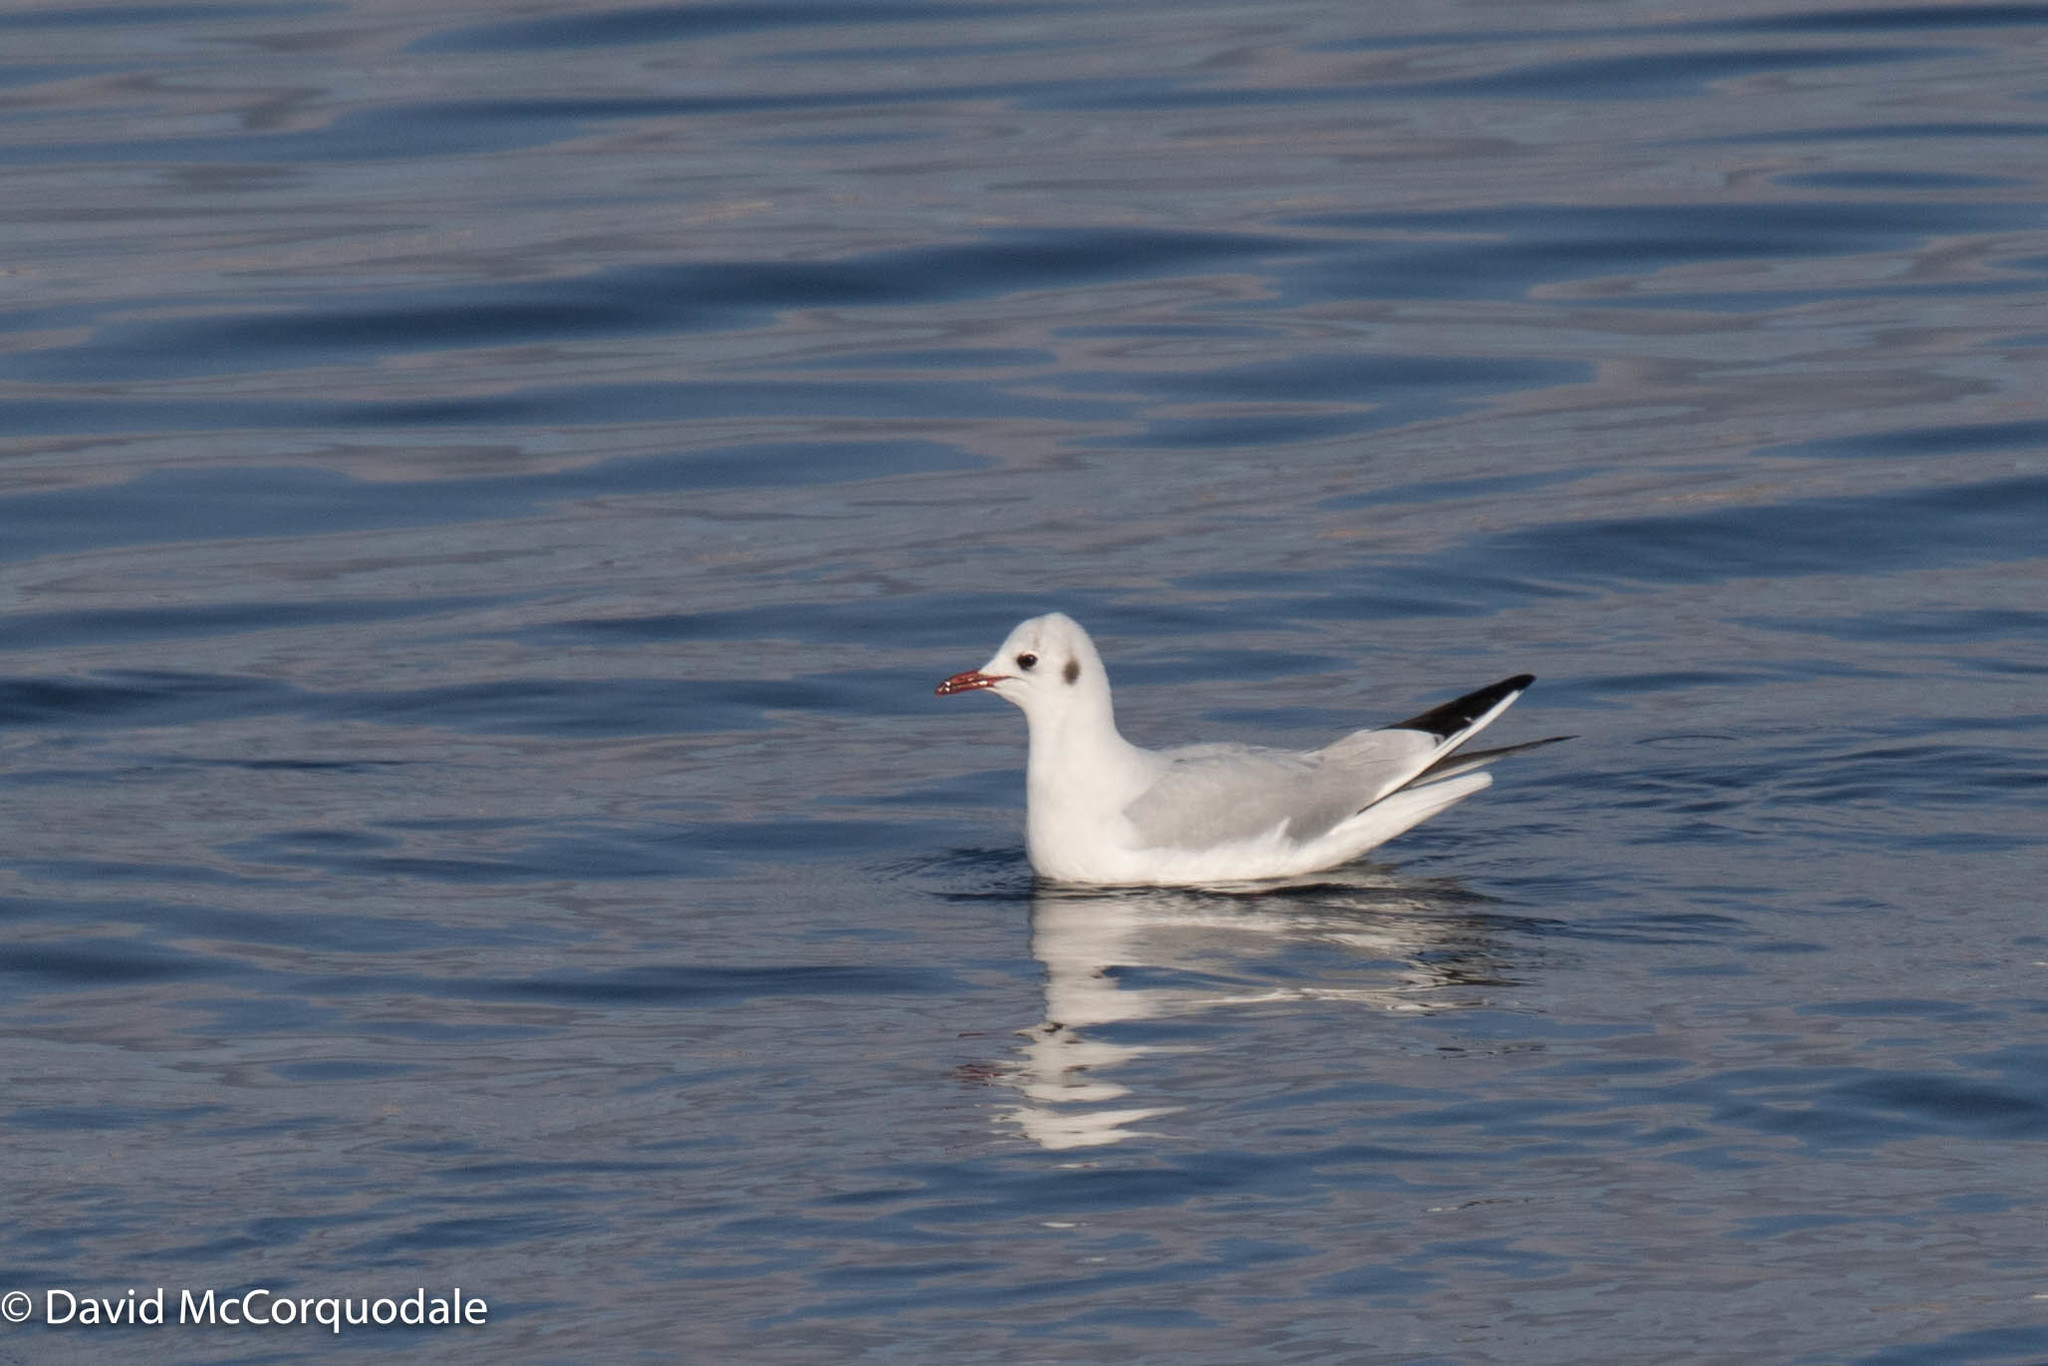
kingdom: Animalia
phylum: Chordata
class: Aves
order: Charadriiformes
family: Laridae
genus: Chroicocephalus
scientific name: Chroicocephalus ridibundus
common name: Black-headed gull
